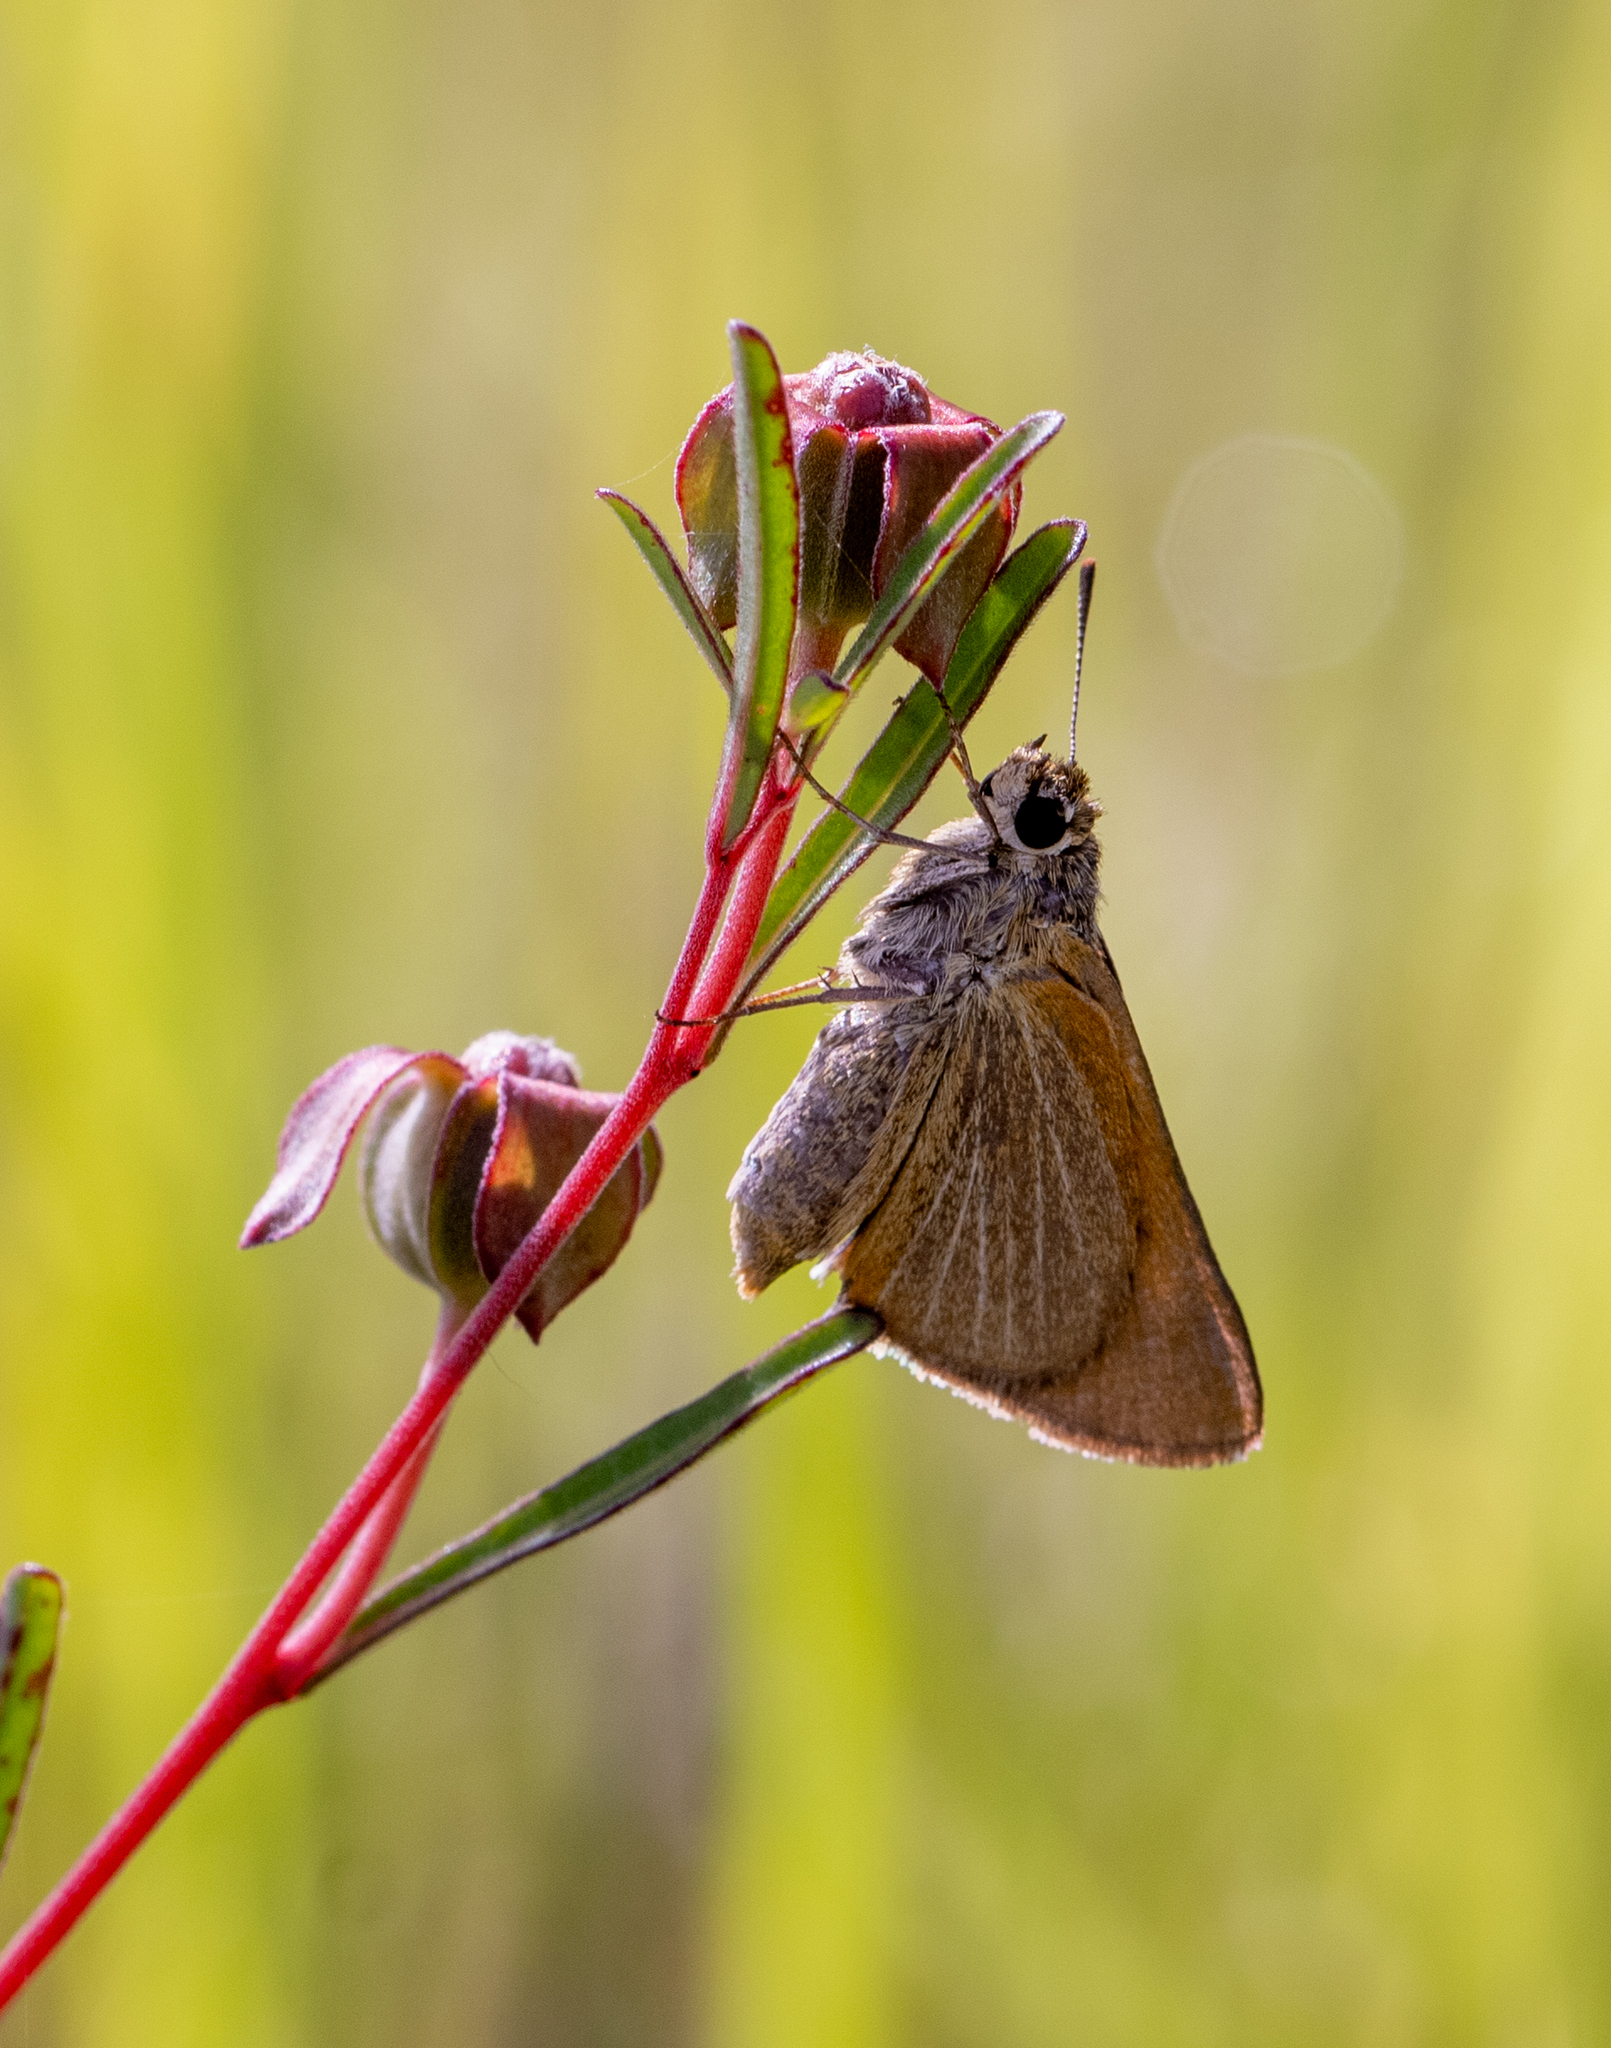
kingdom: Animalia
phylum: Arthropoda
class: Insecta
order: Lepidoptera
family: Hesperiidae
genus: Euphyes
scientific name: Euphyes berryi
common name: Berry's skipper
